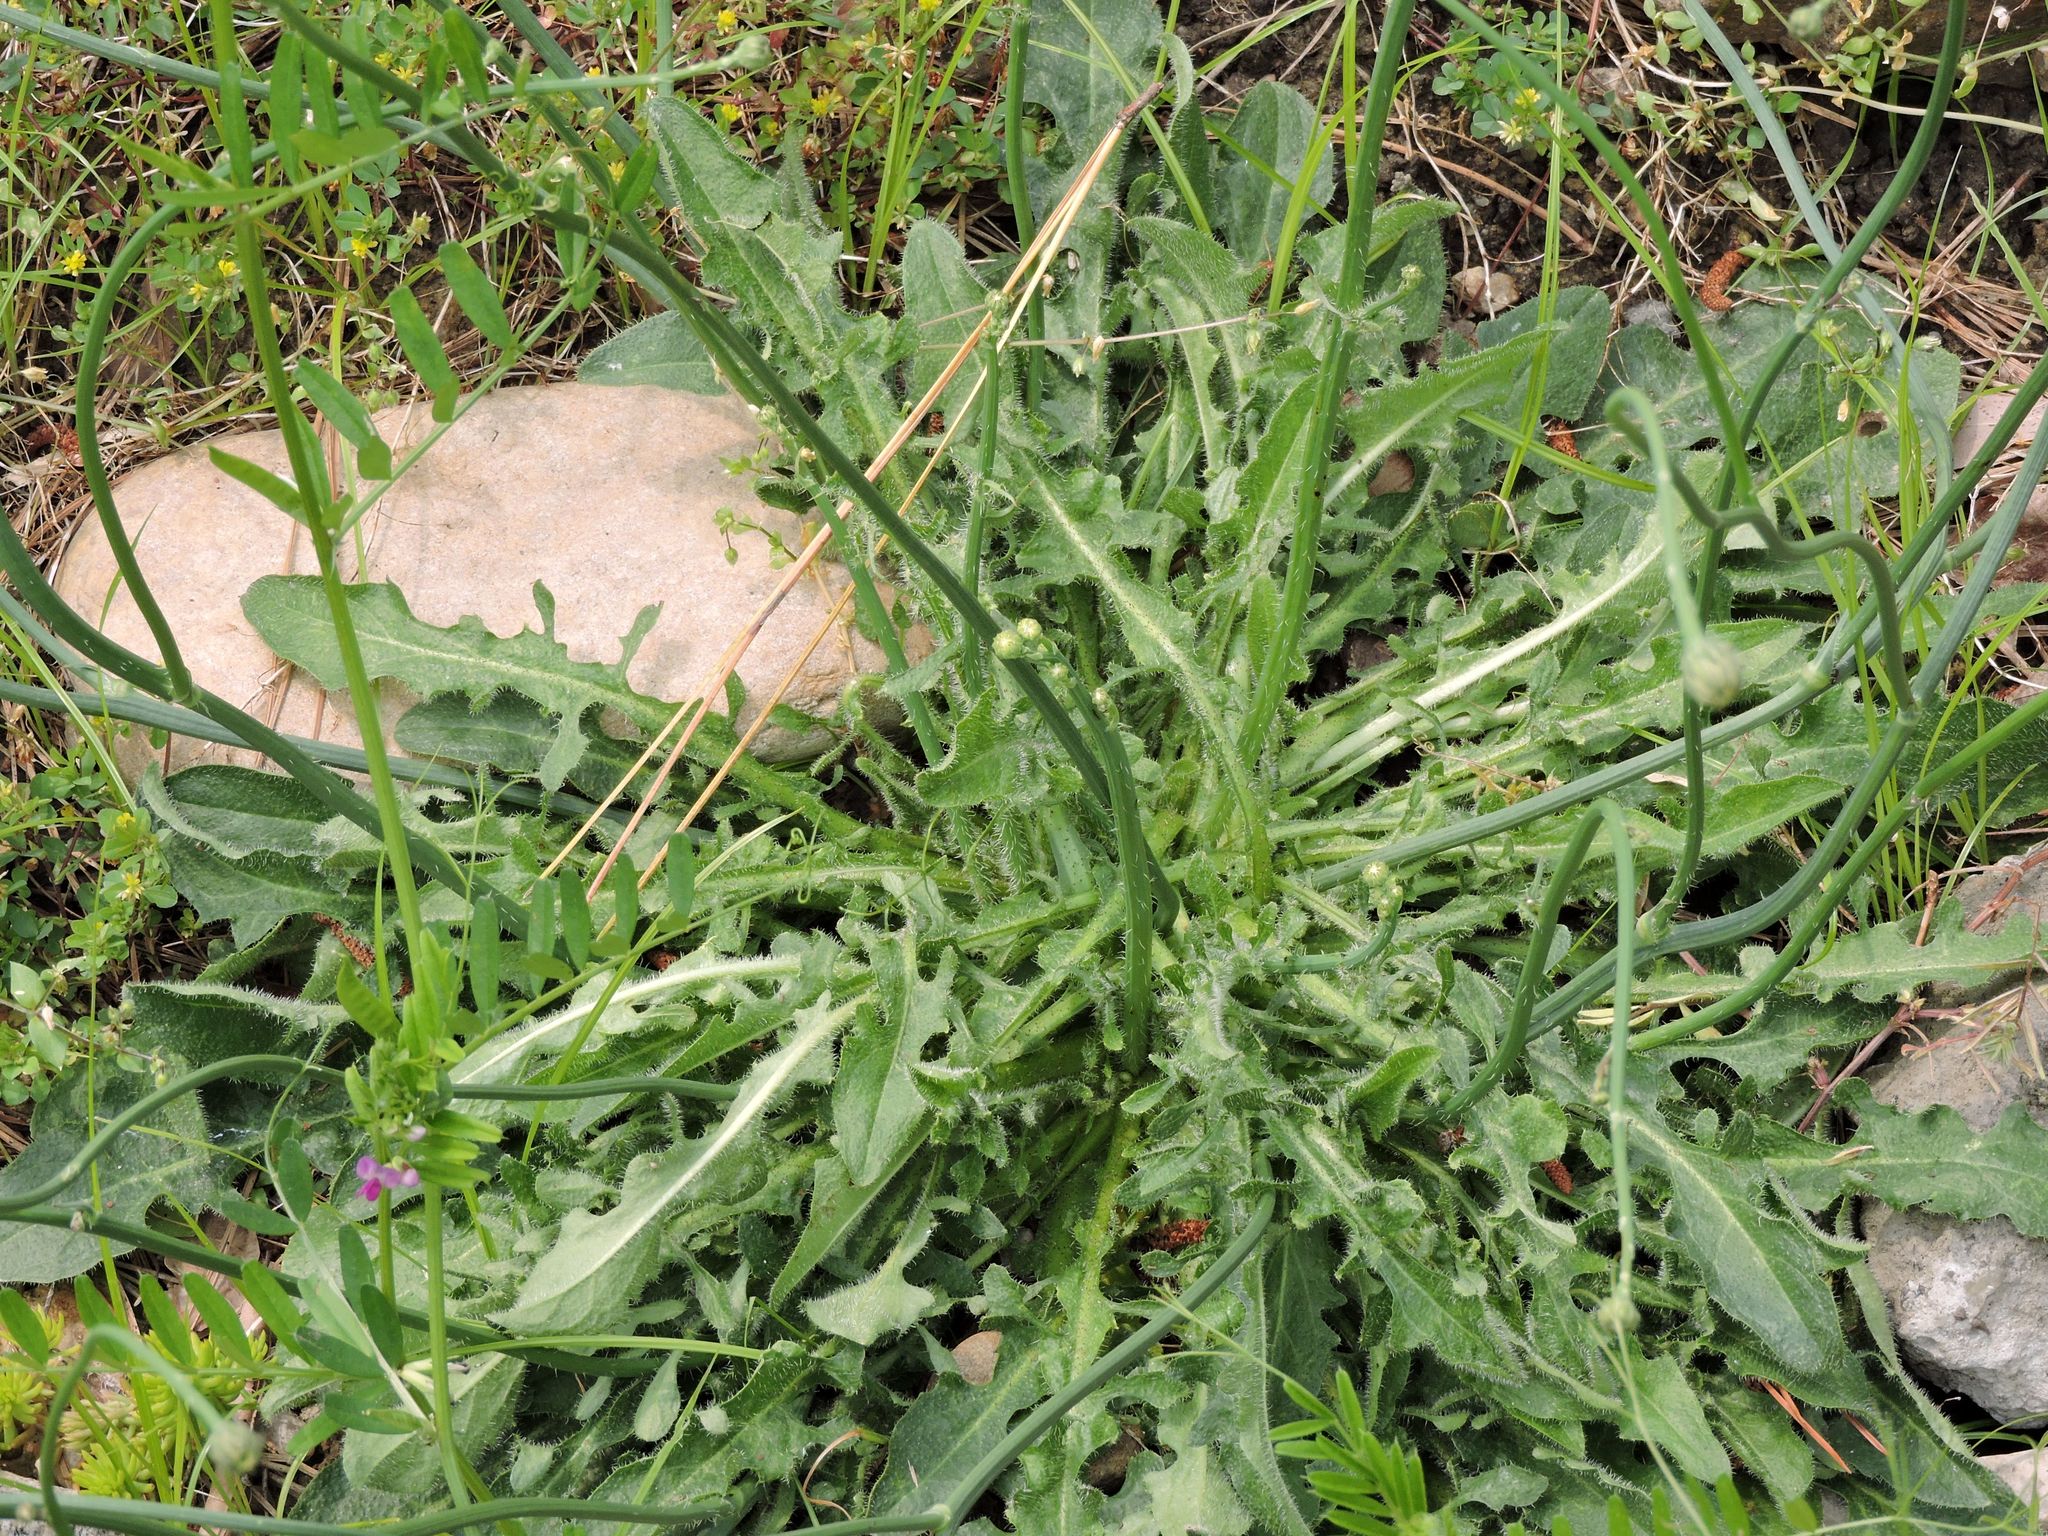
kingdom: Plantae
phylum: Tracheophyta
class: Magnoliopsida
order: Asterales
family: Asteraceae
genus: Hypochaeris
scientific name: Hypochaeris radicata
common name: Flatweed
